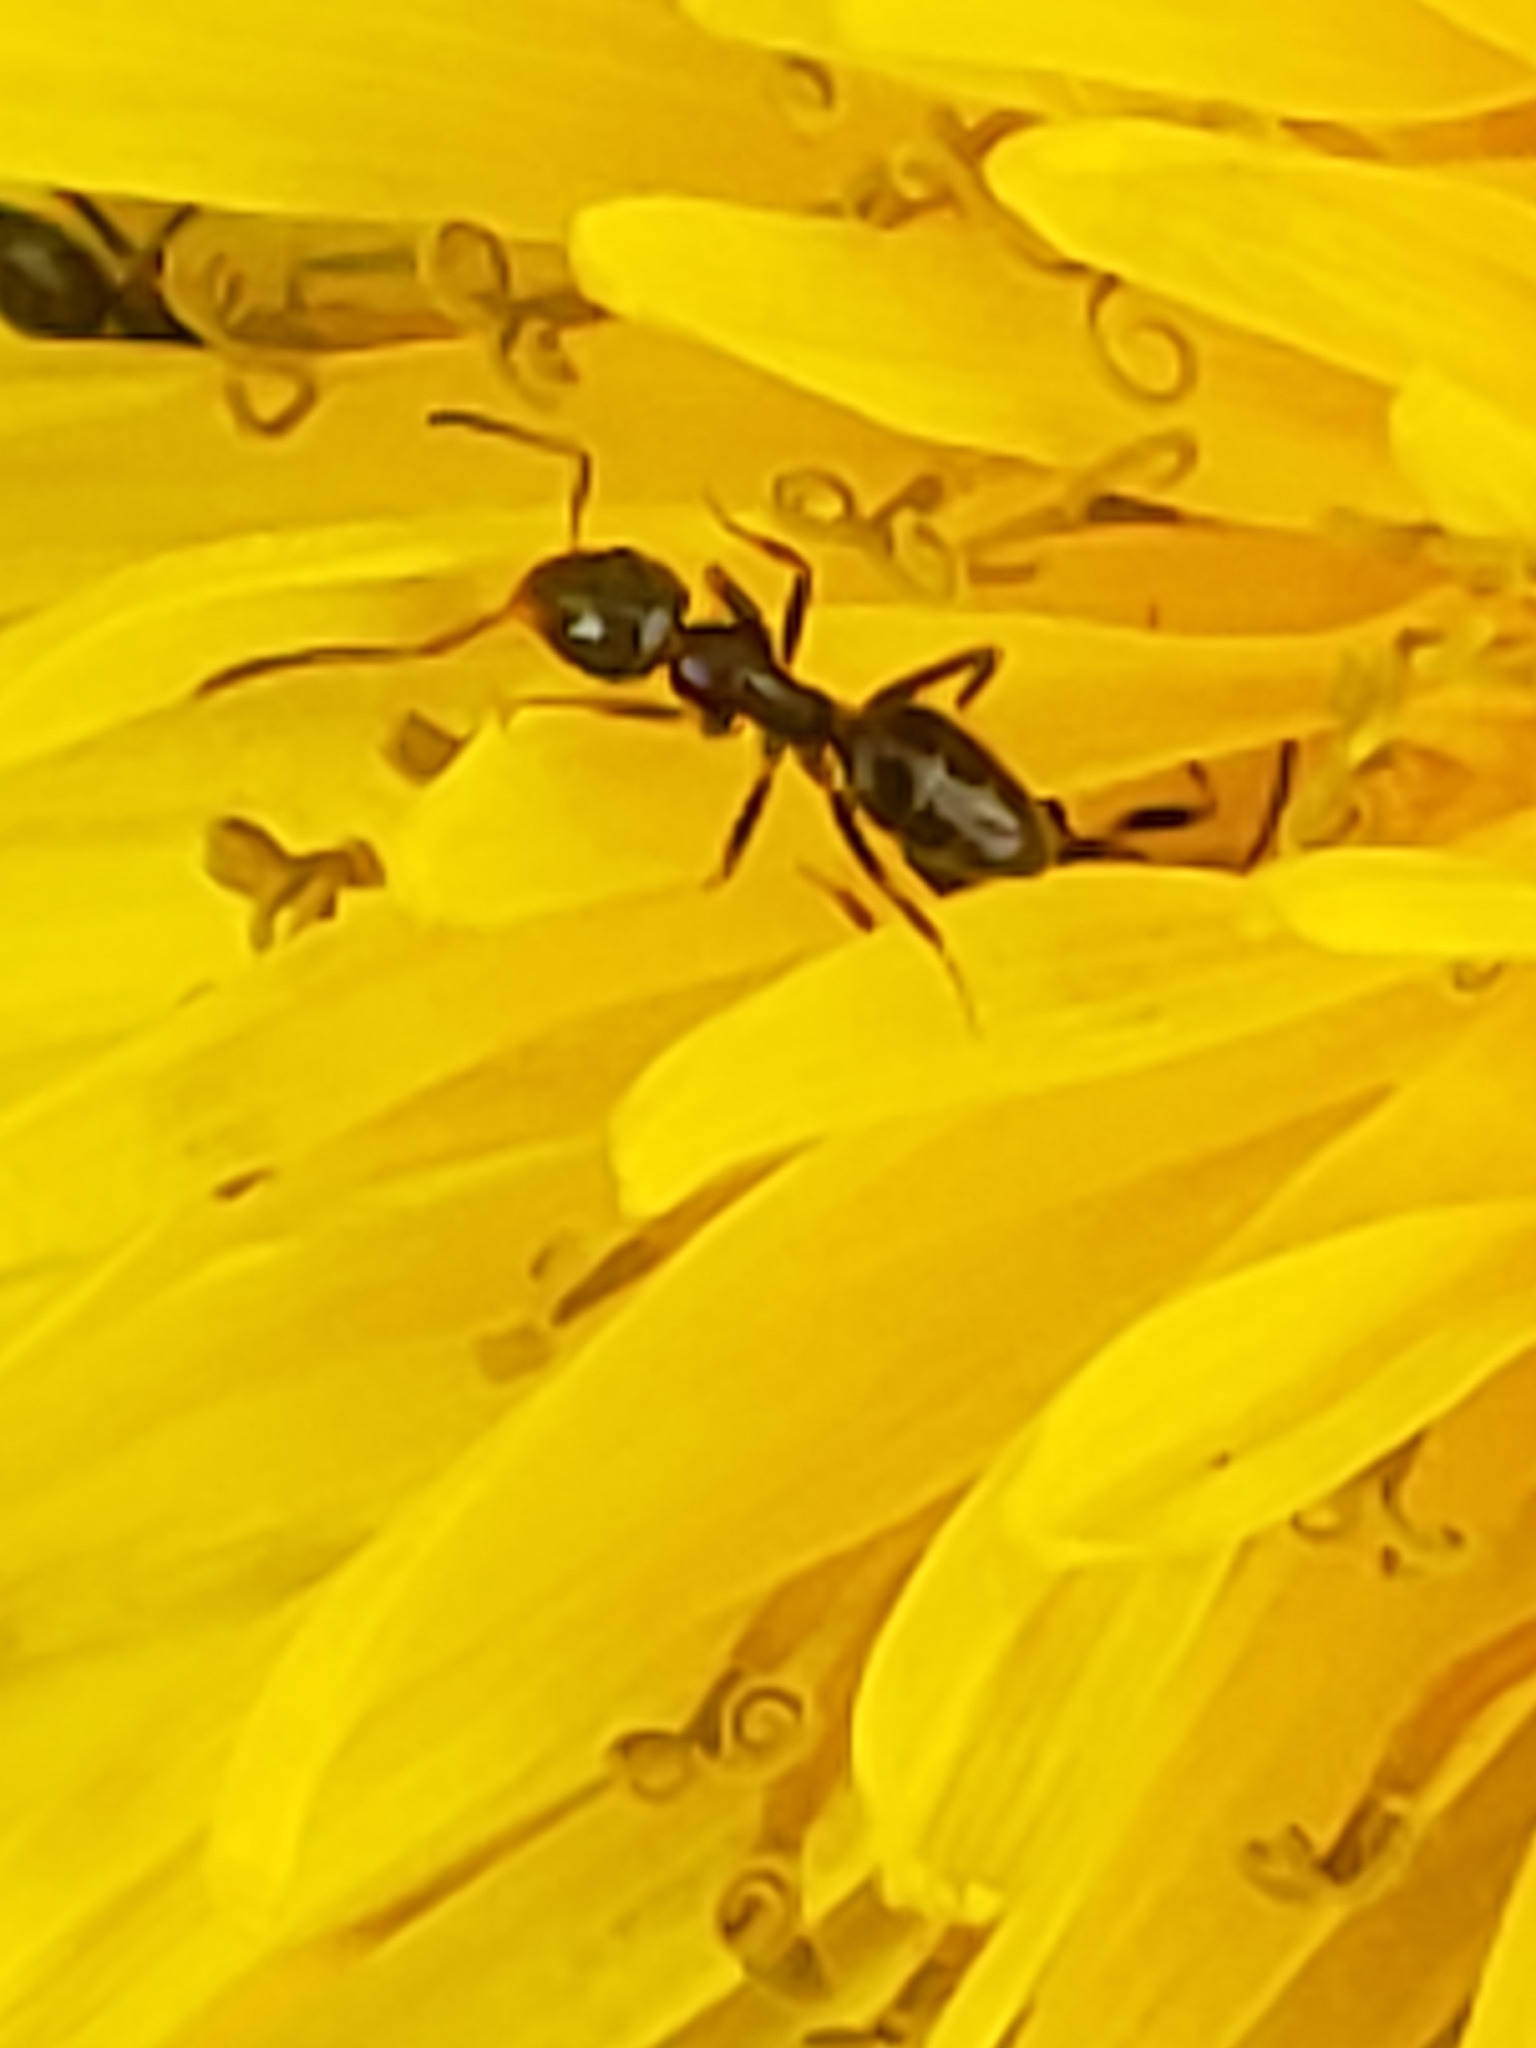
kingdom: Animalia
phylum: Arthropoda
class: Insecta
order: Hymenoptera
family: Formicidae
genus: Tapinoma
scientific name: Tapinoma sessile
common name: Odorous house ant
